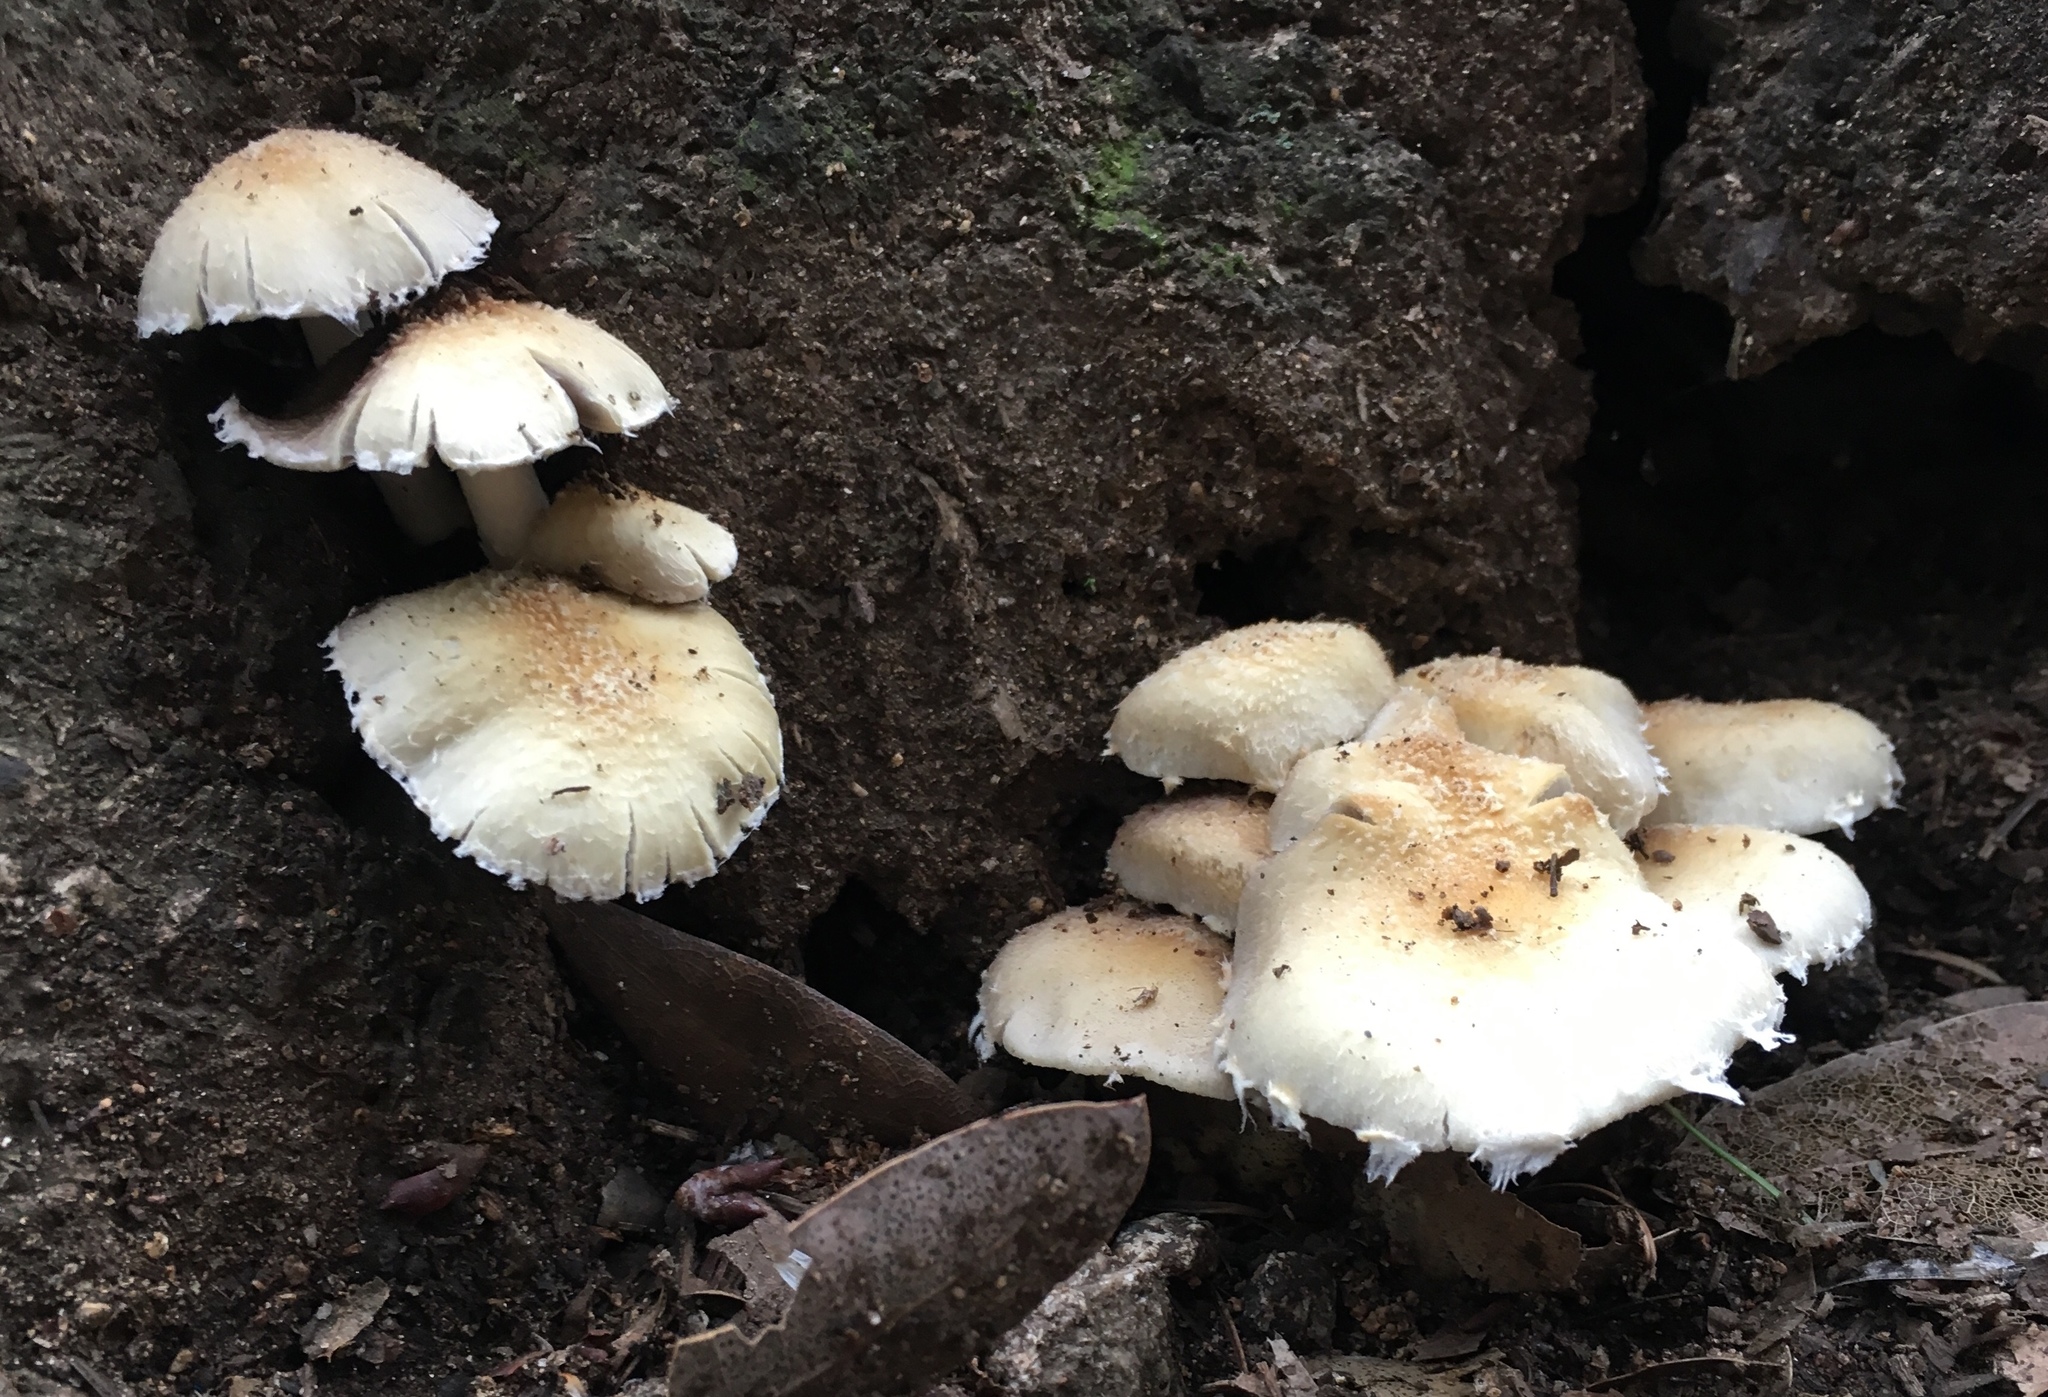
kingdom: Plantae
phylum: Tracheophyta
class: Magnoliopsida
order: Sapindales
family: Sapindaceae
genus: Acer
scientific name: Acer macrophyllum
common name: Oregon maple
